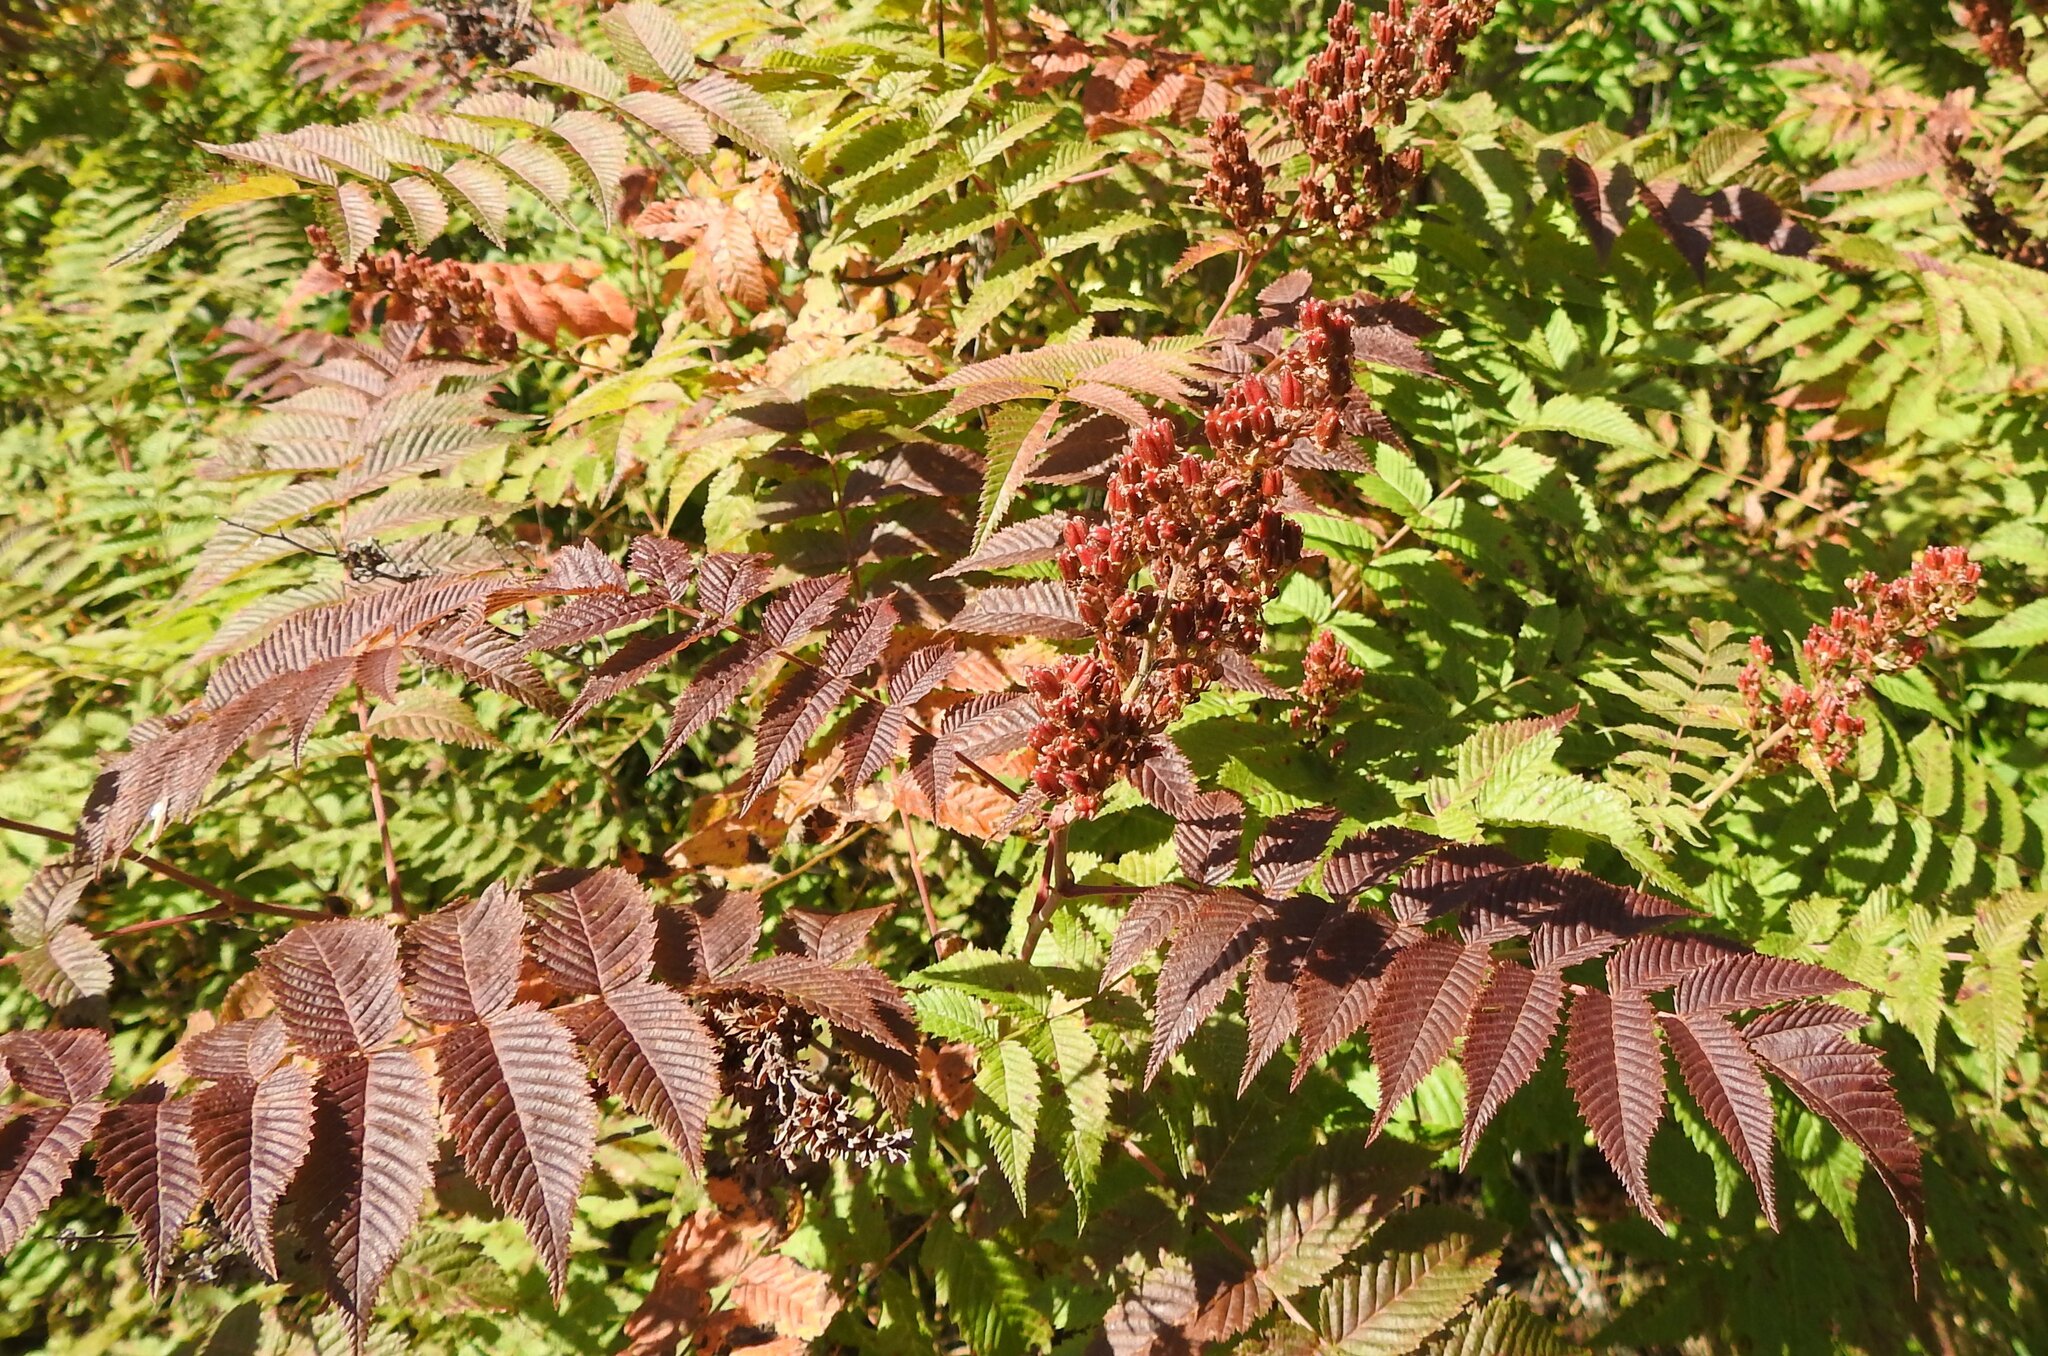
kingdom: Plantae
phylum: Tracheophyta
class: Magnoliopsida
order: Rosales
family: Rosaceae
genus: Sorbaria
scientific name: Sorbaria sorbifolia
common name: False spiraea
